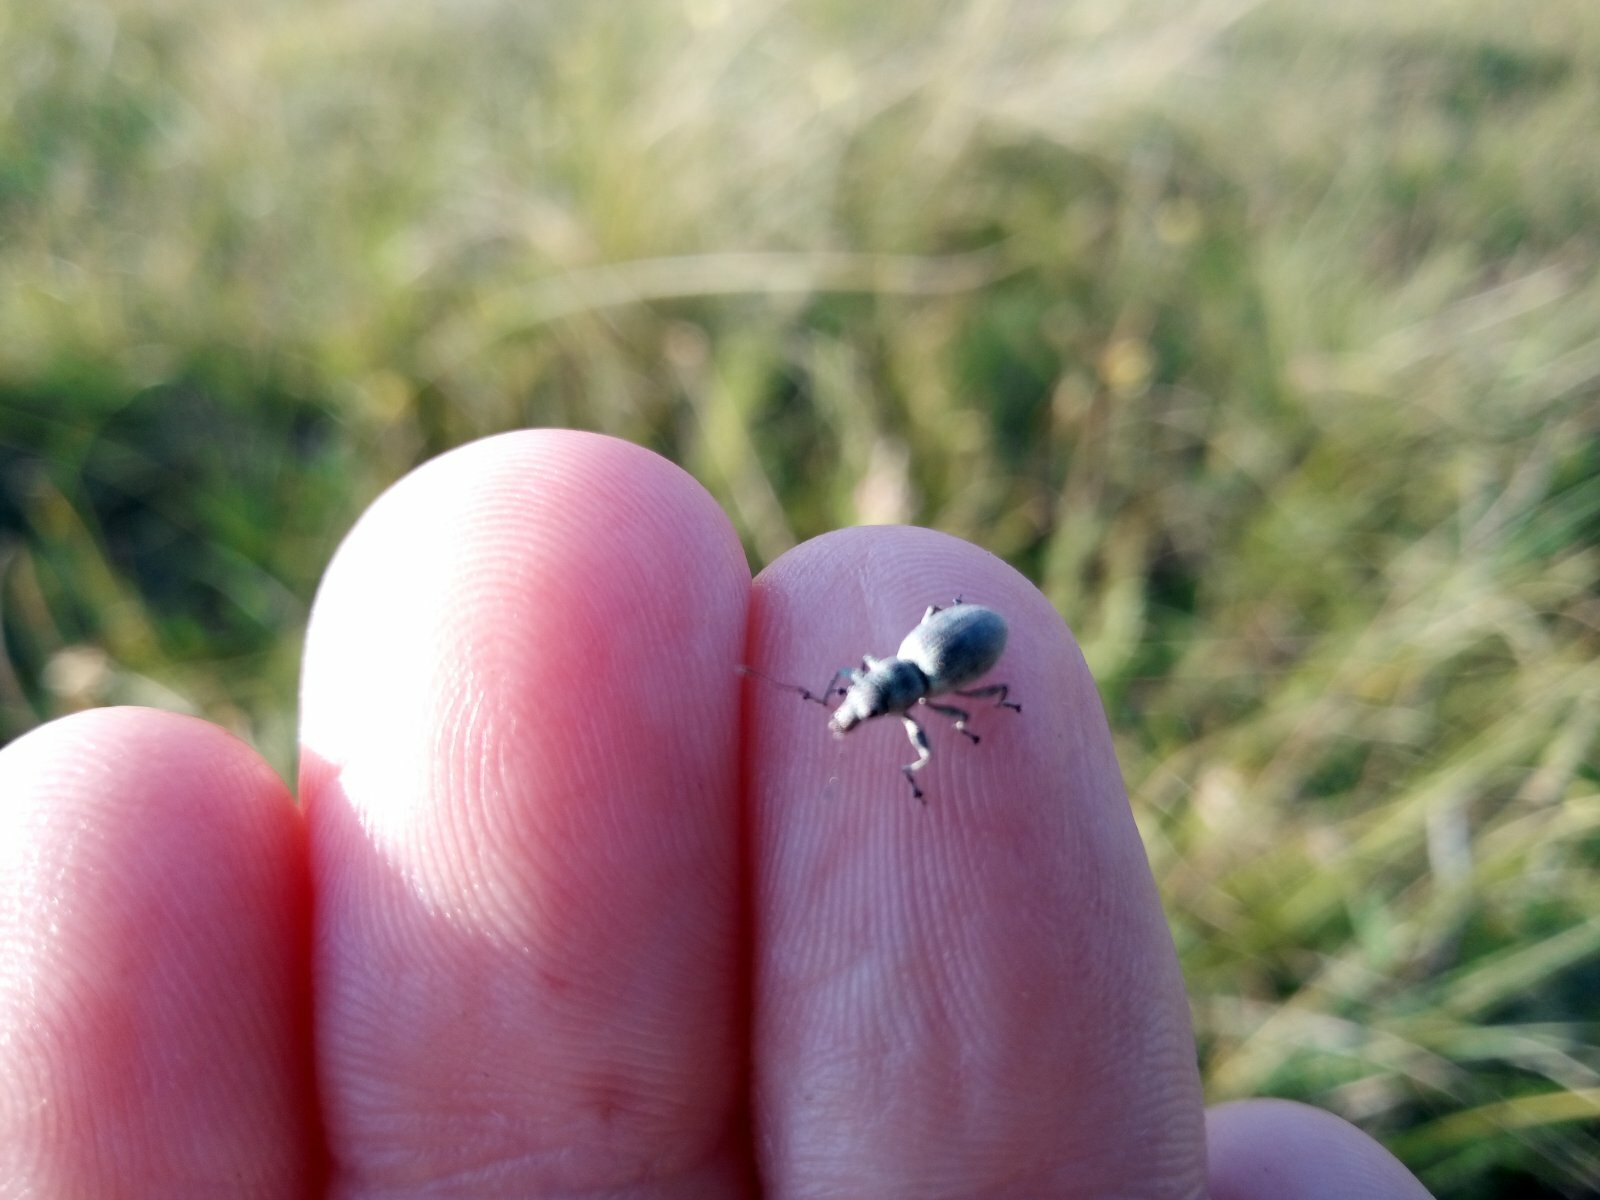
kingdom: Animalia
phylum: Arthropoda
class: Insecta
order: Coleoptera
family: Curculionidae
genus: Eusomus
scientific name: Eusomus ovulum
